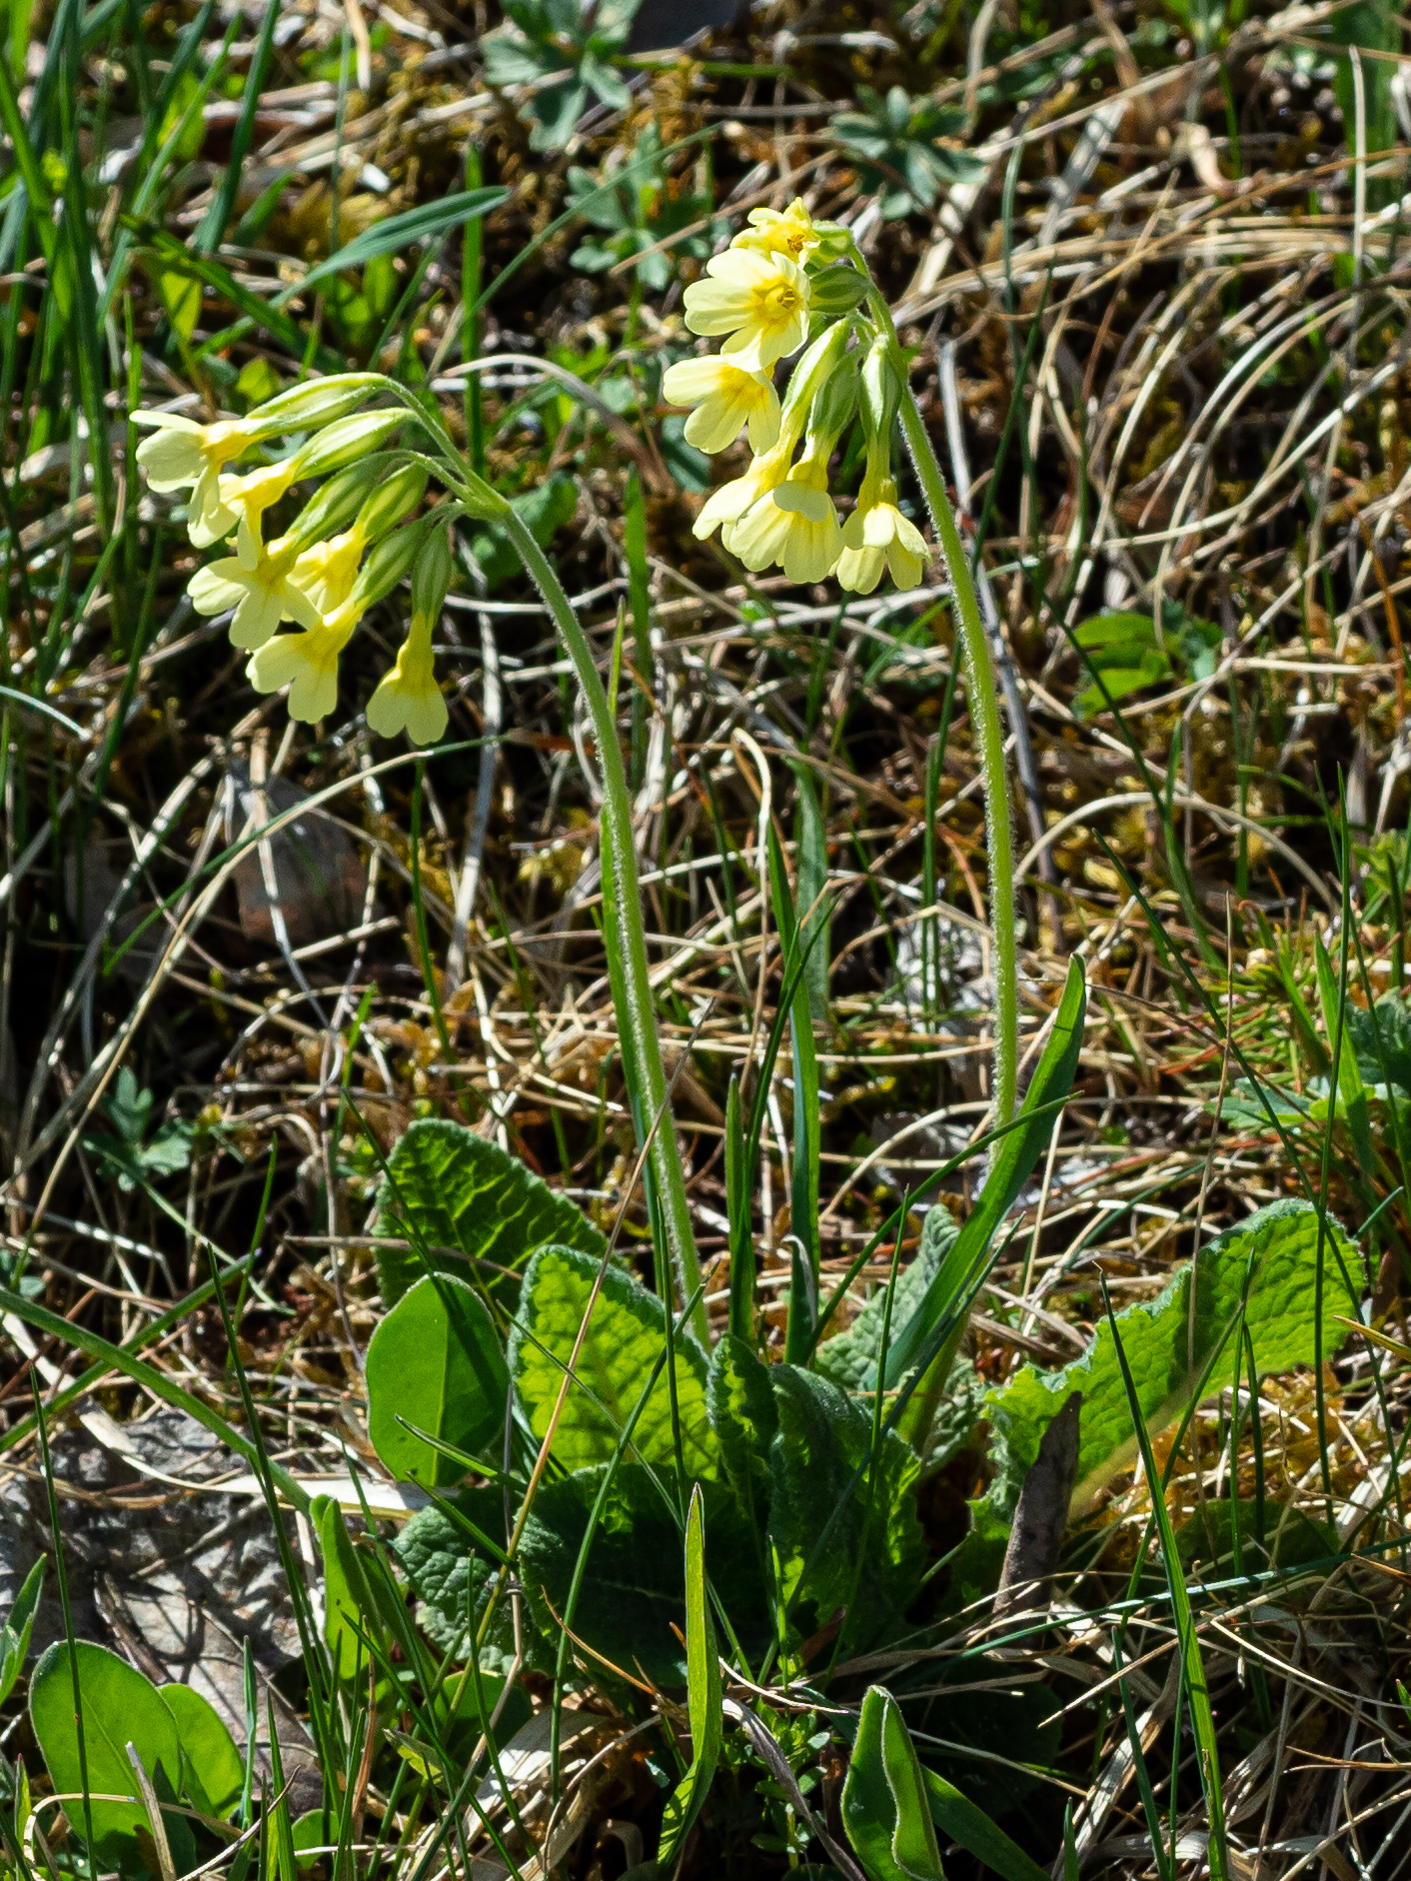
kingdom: Plantae
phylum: Tracheophyta
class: Magnoliopsida
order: Ericales
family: Primulaceae
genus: Primula
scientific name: Primula elatior
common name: Oxlip
